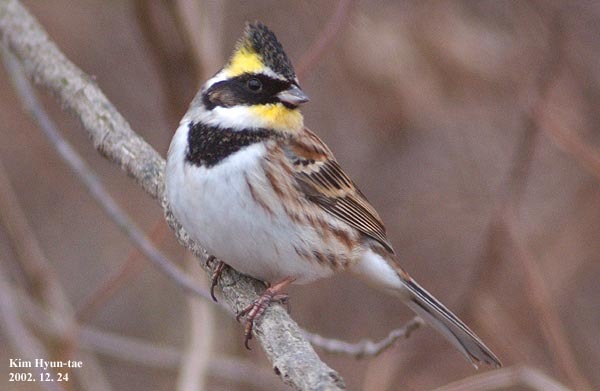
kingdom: Animalia
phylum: Chordata
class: Aves
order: Passeriformes
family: Emberizidae
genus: Emberiza
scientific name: Emberiza elegans
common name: Yellow-throated bunting
